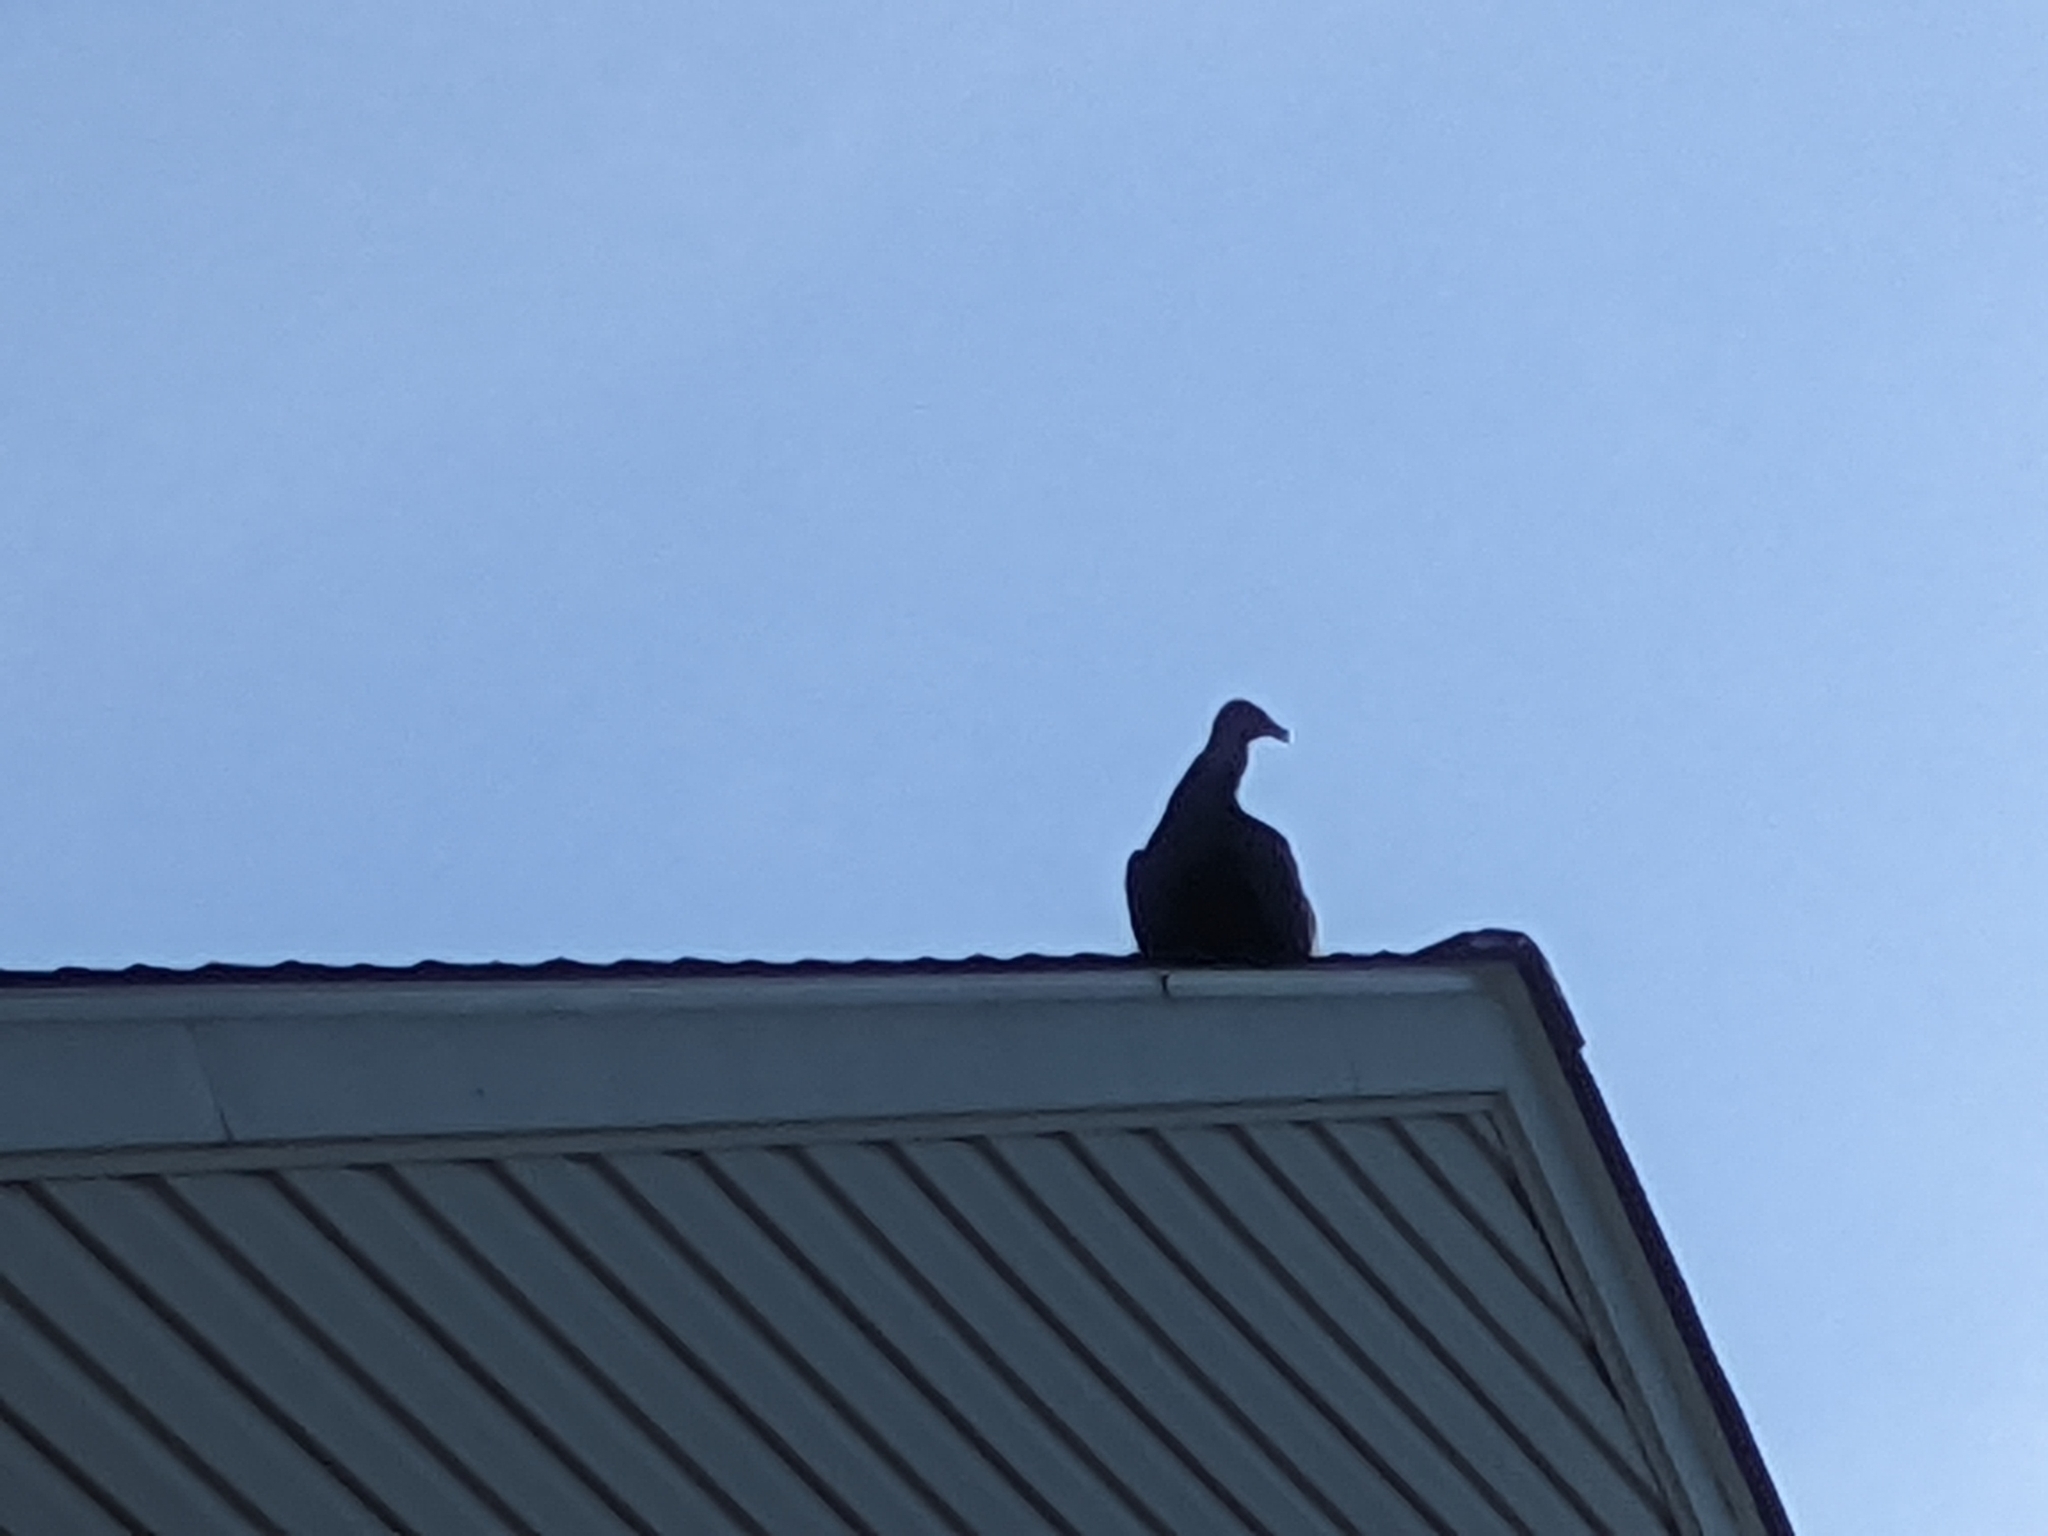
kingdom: Animalia
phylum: Chordata
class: Aves
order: Accipitriformes
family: Cathartidae
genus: Coragyps
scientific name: Coragyps atratus
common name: Black vulture
